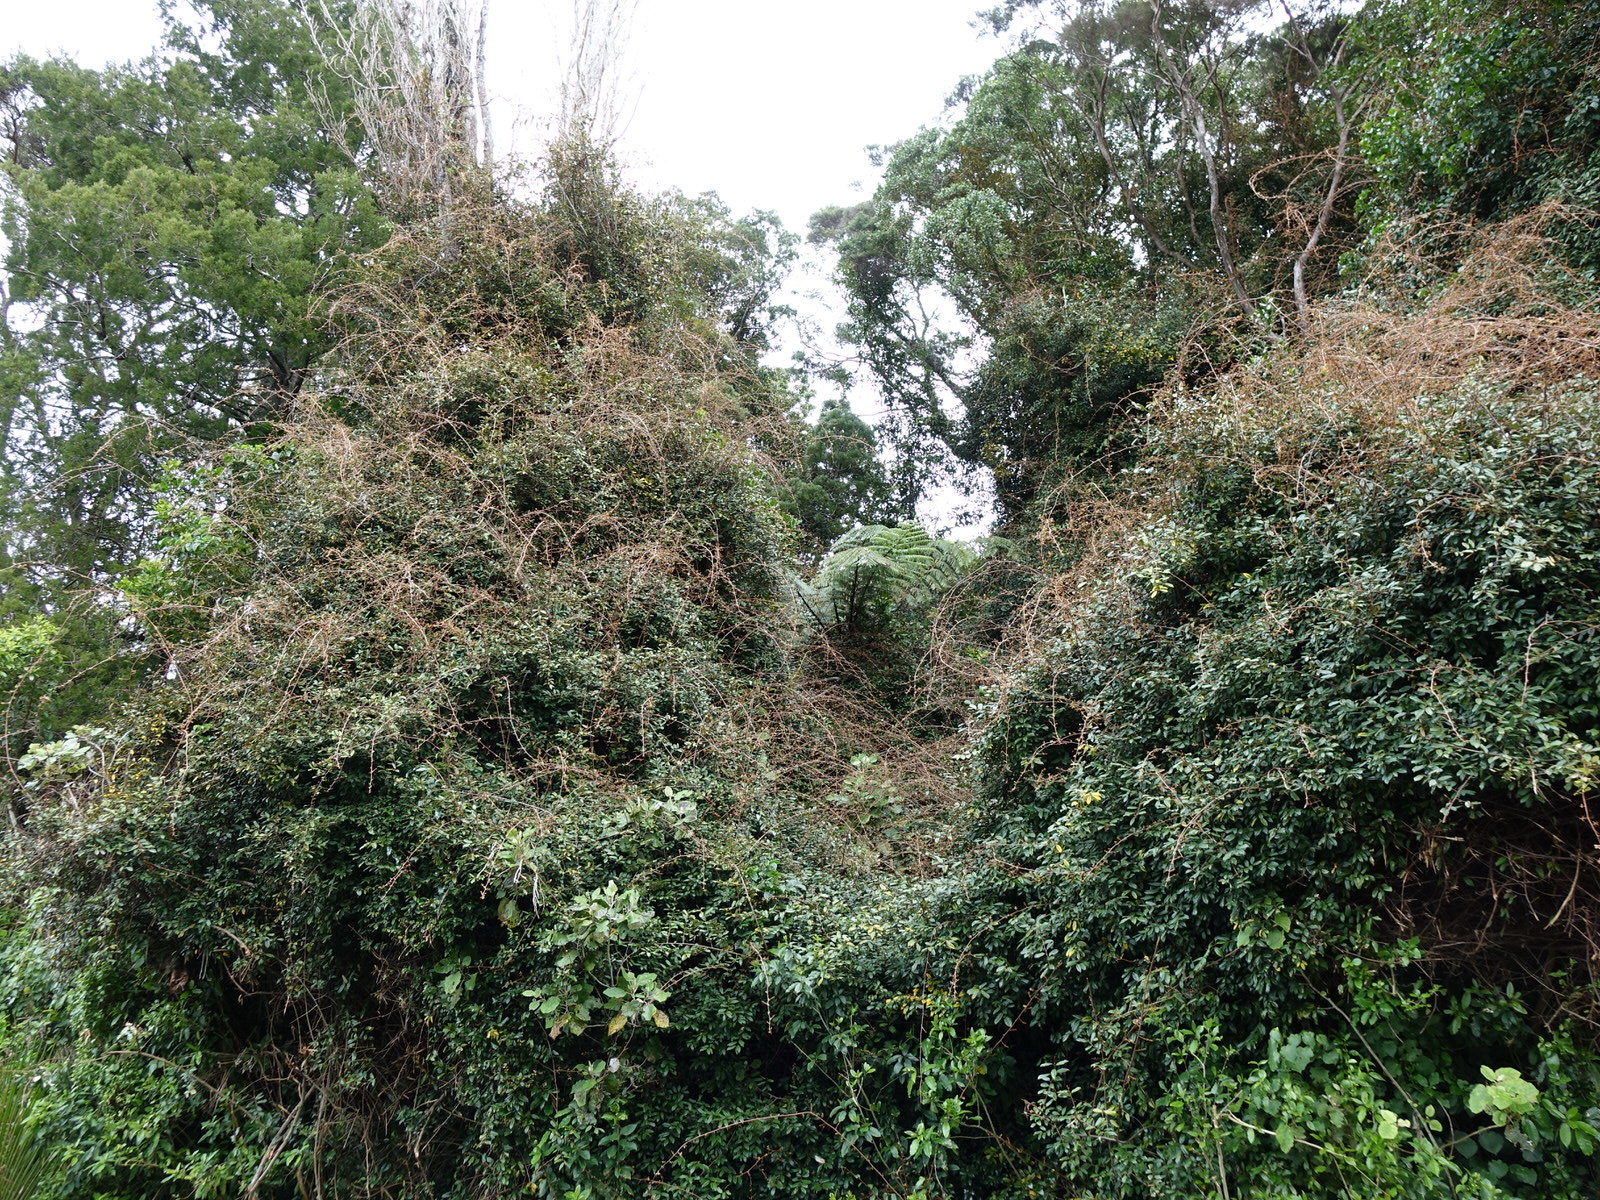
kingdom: Plantae
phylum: Tracheophyta
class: Magnoliopsida
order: Rosales
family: Elaeagnaceae
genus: Elaeagnus
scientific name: Elaeagnus reflexa
